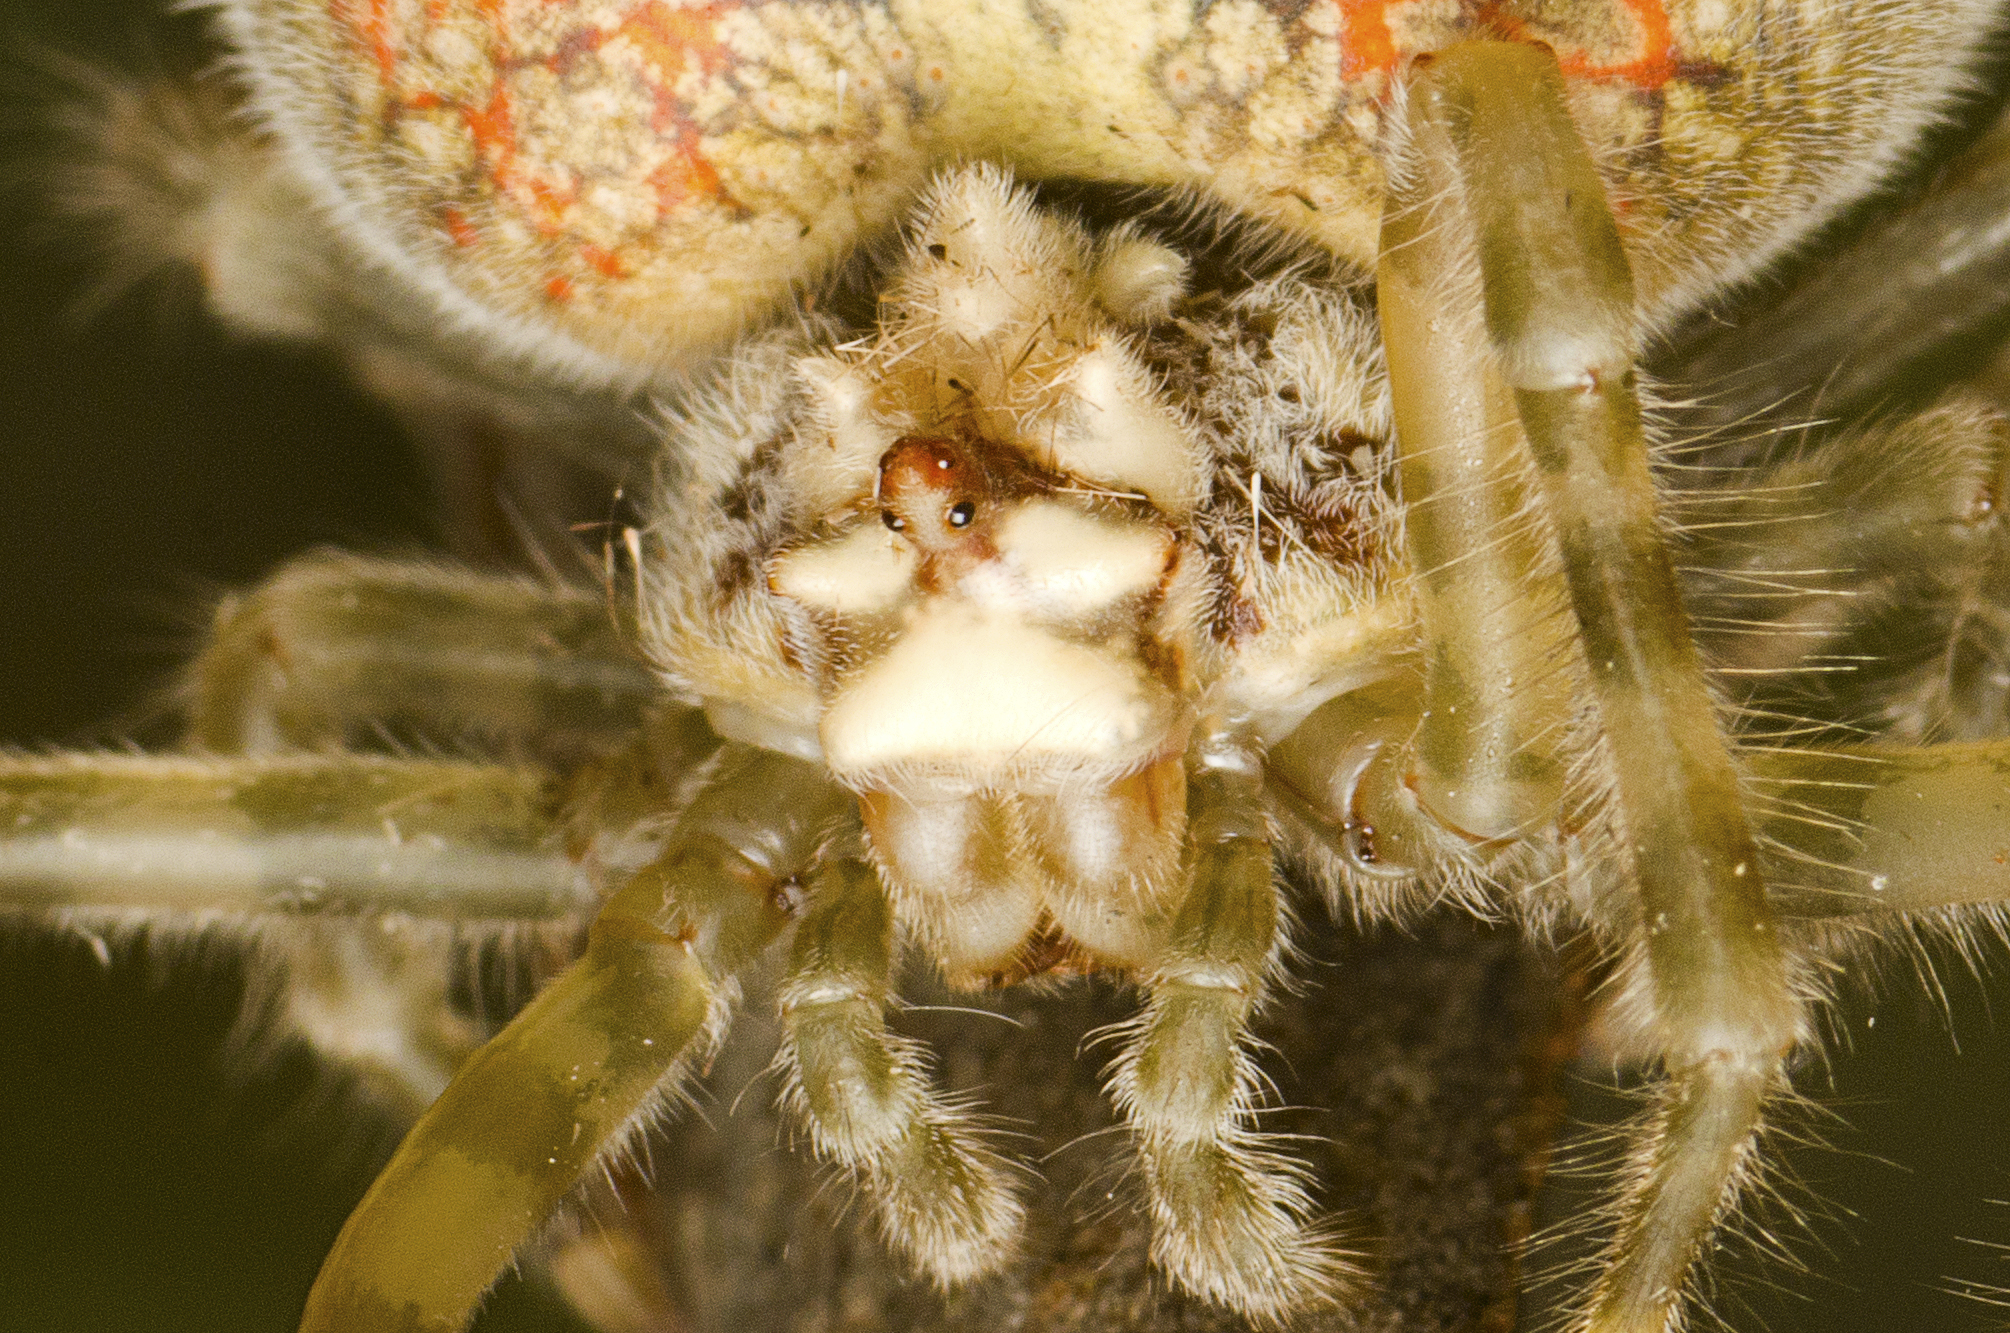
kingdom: Animalia
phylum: Arthropoda
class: Arachnida
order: Araneae
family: Araneidae
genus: Ordgarius
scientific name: Ordgarius magnificus
